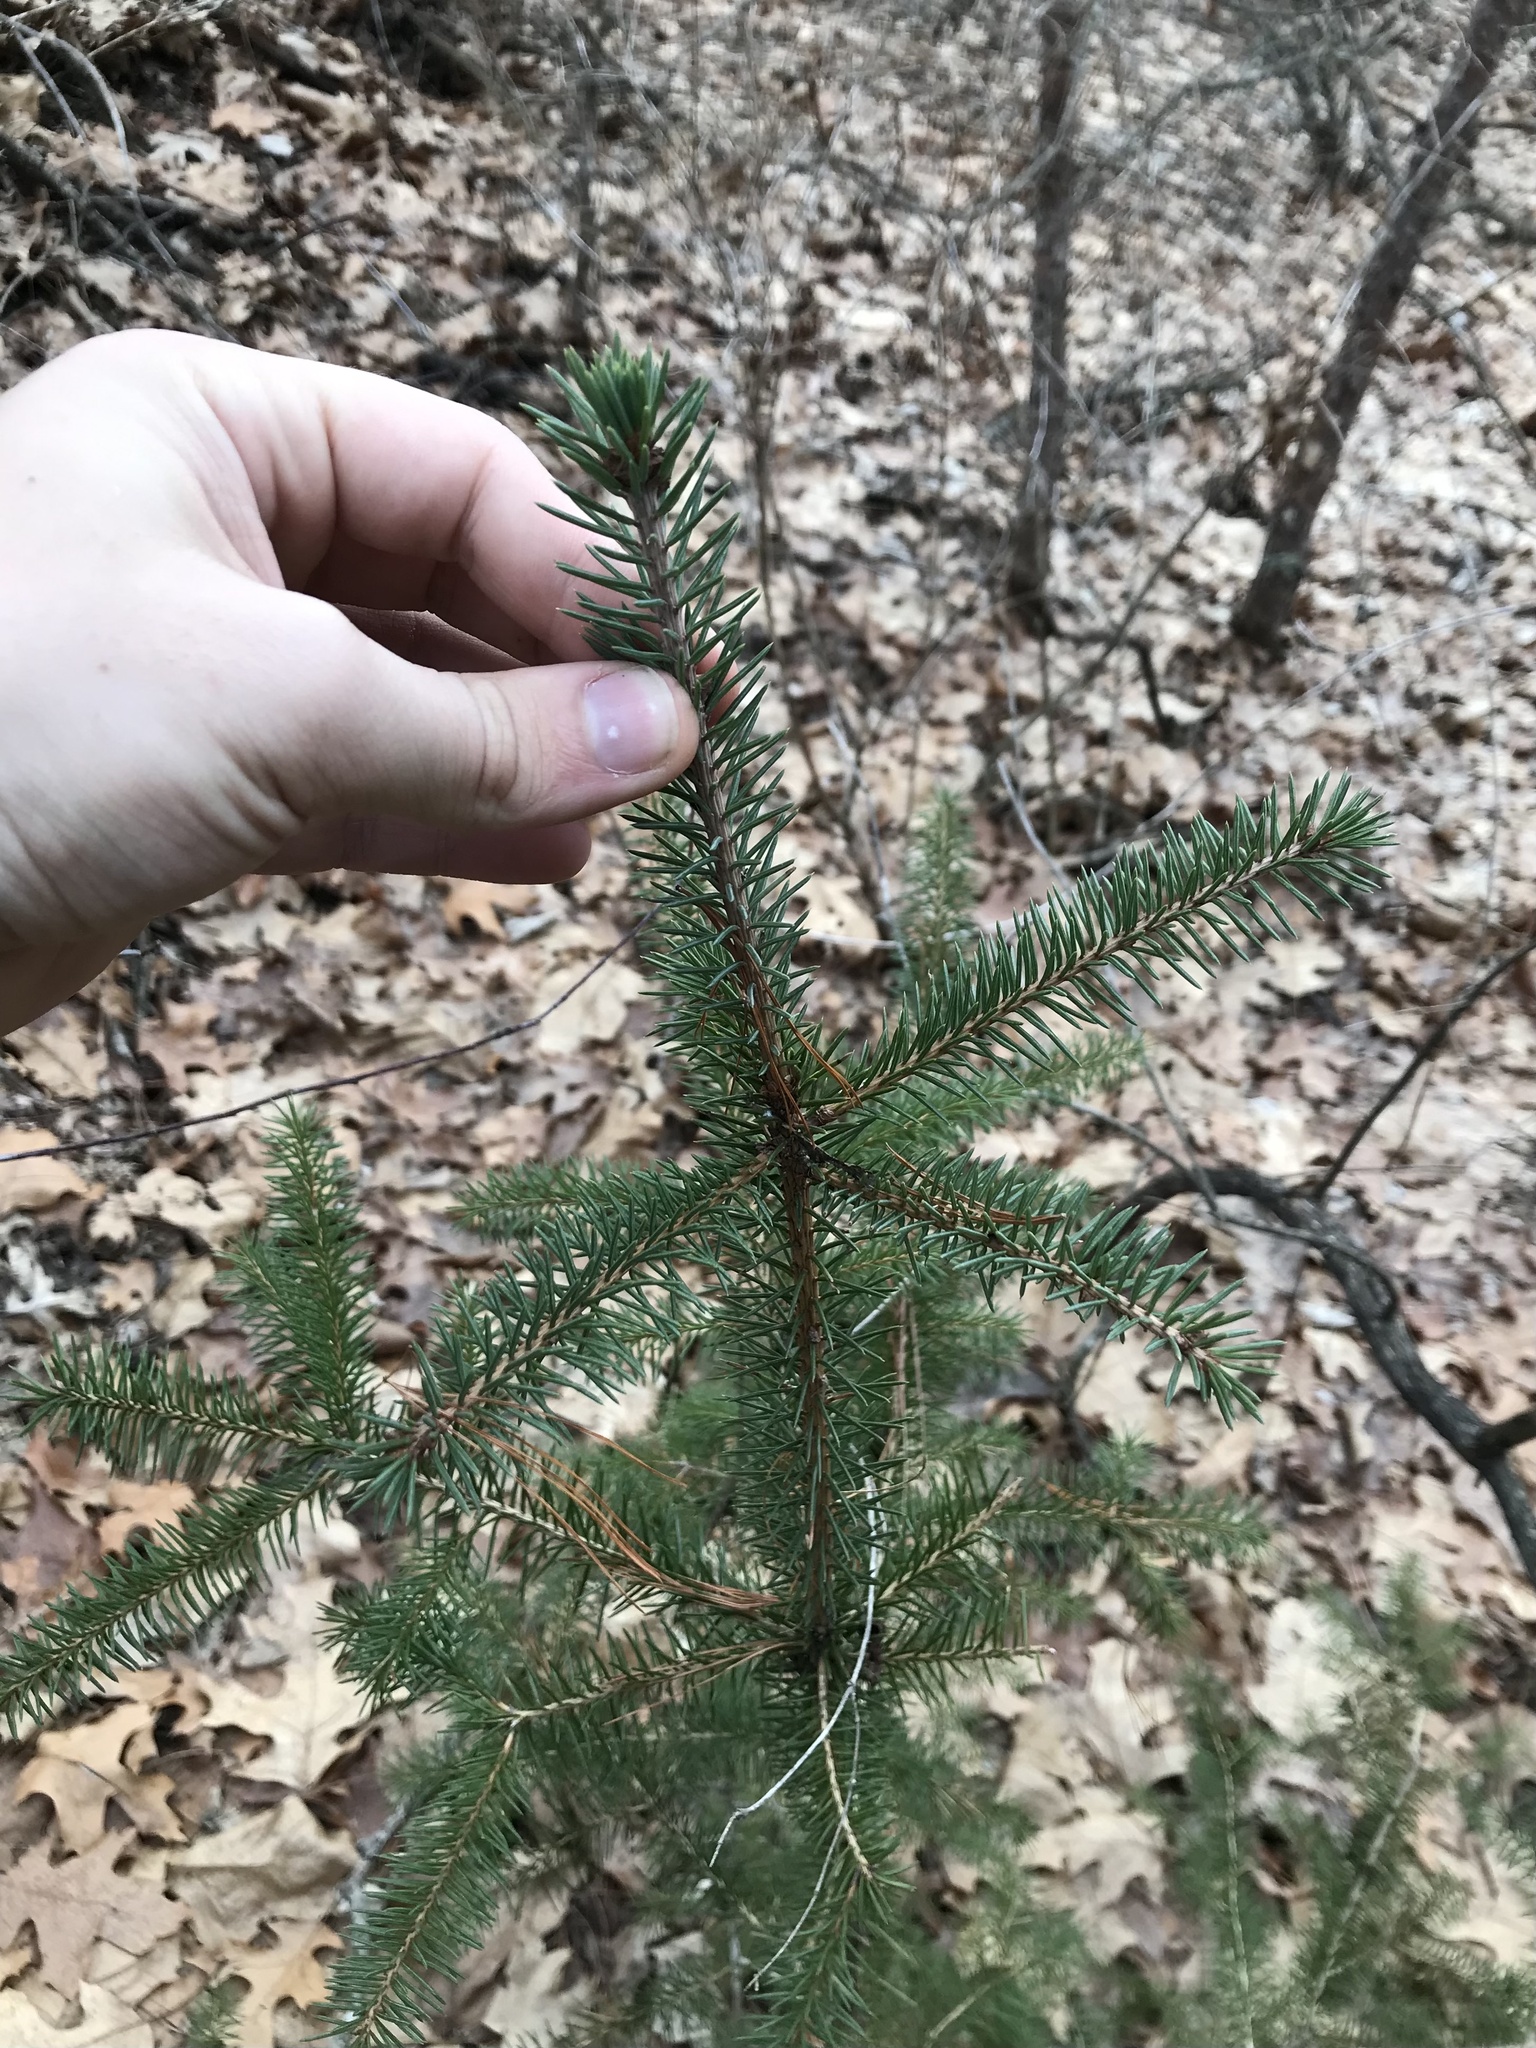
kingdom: Plantae
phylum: Tracheophyta
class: Pinopsida
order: Pinales
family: Pinaceae
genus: Picea
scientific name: Picea glauca
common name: White spruce
